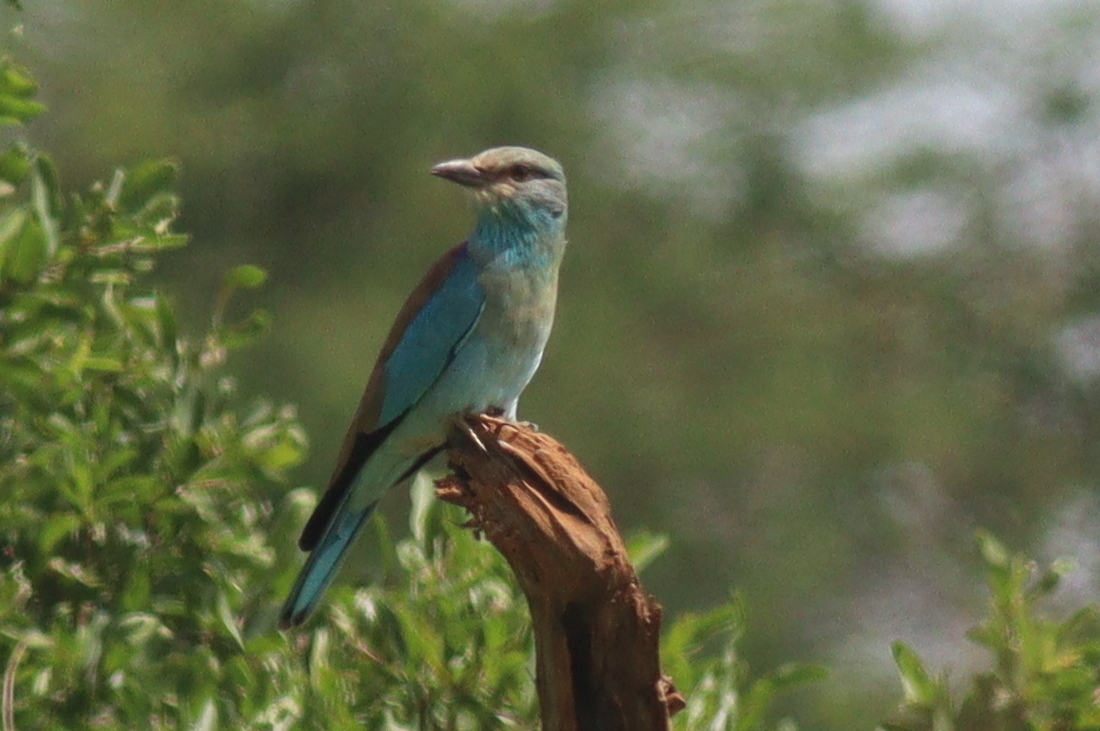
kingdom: Animalia
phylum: Chordata
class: Aves
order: Coraciiformes
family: Coraciidae
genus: Coracias
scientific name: Coracias garrulus
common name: European roller
